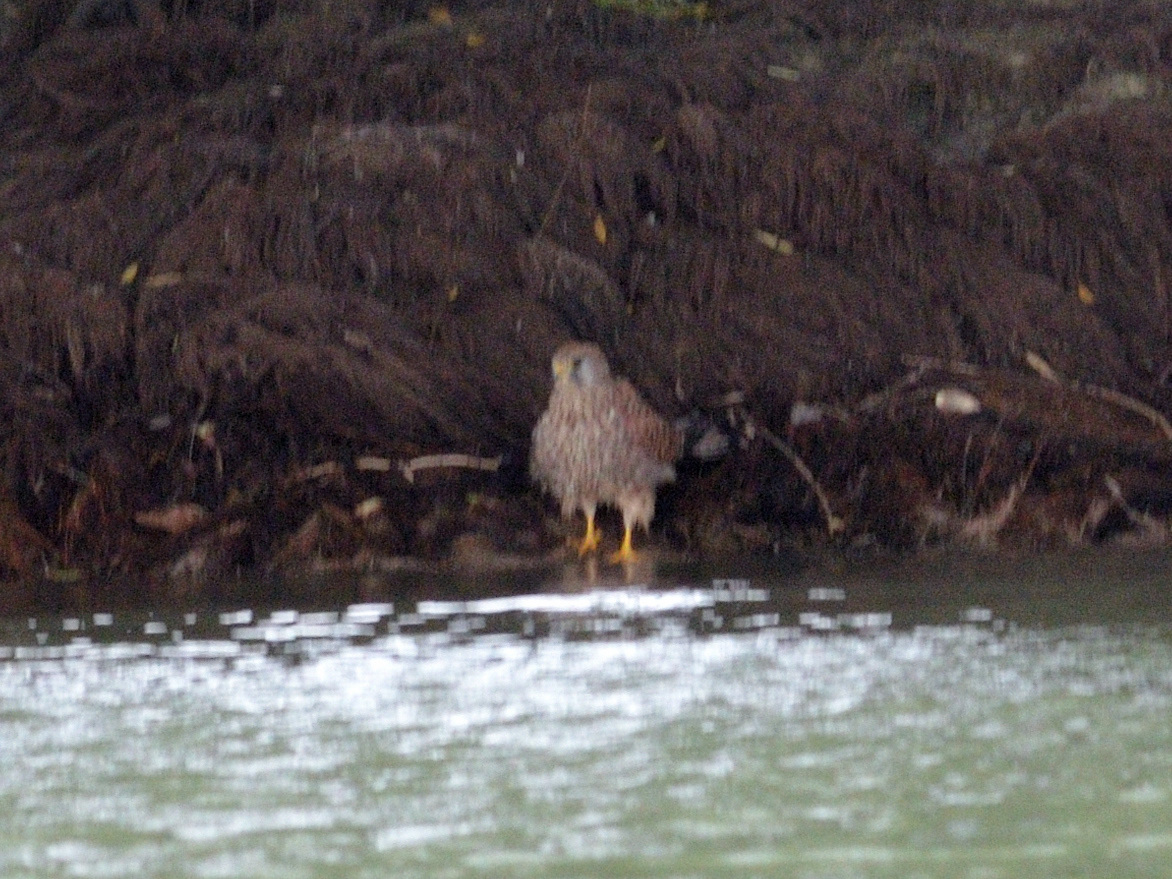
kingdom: Animalia
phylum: Chordata
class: Aves
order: Falconiformes
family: Falconidae
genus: Falco
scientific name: Falco tinnunculus
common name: Common kestrel
